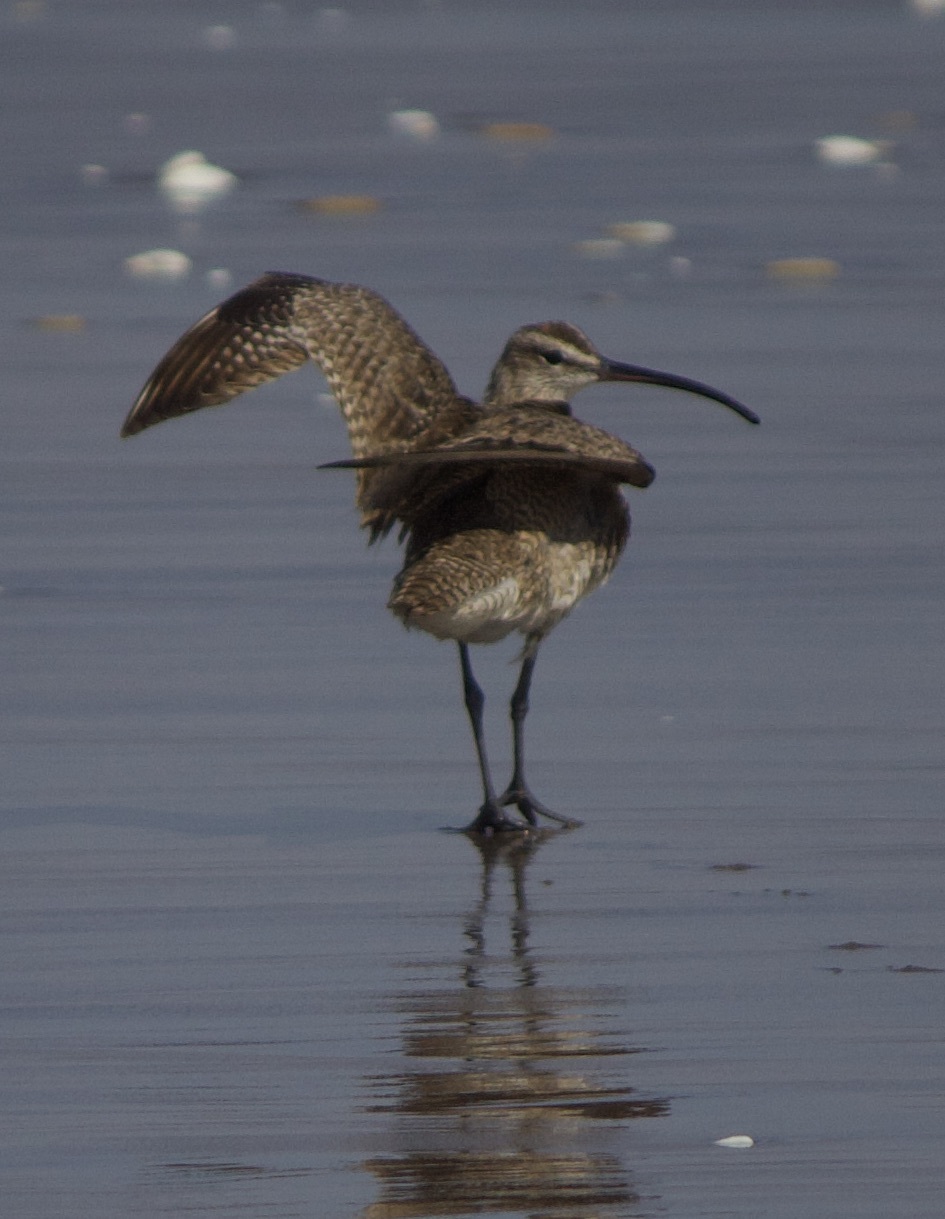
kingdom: Animalia
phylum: Chordata
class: Aves
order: Charadriiformes
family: Scolopacidae
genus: Numenius
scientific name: Numenius phaeopus
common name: Whimbrel
